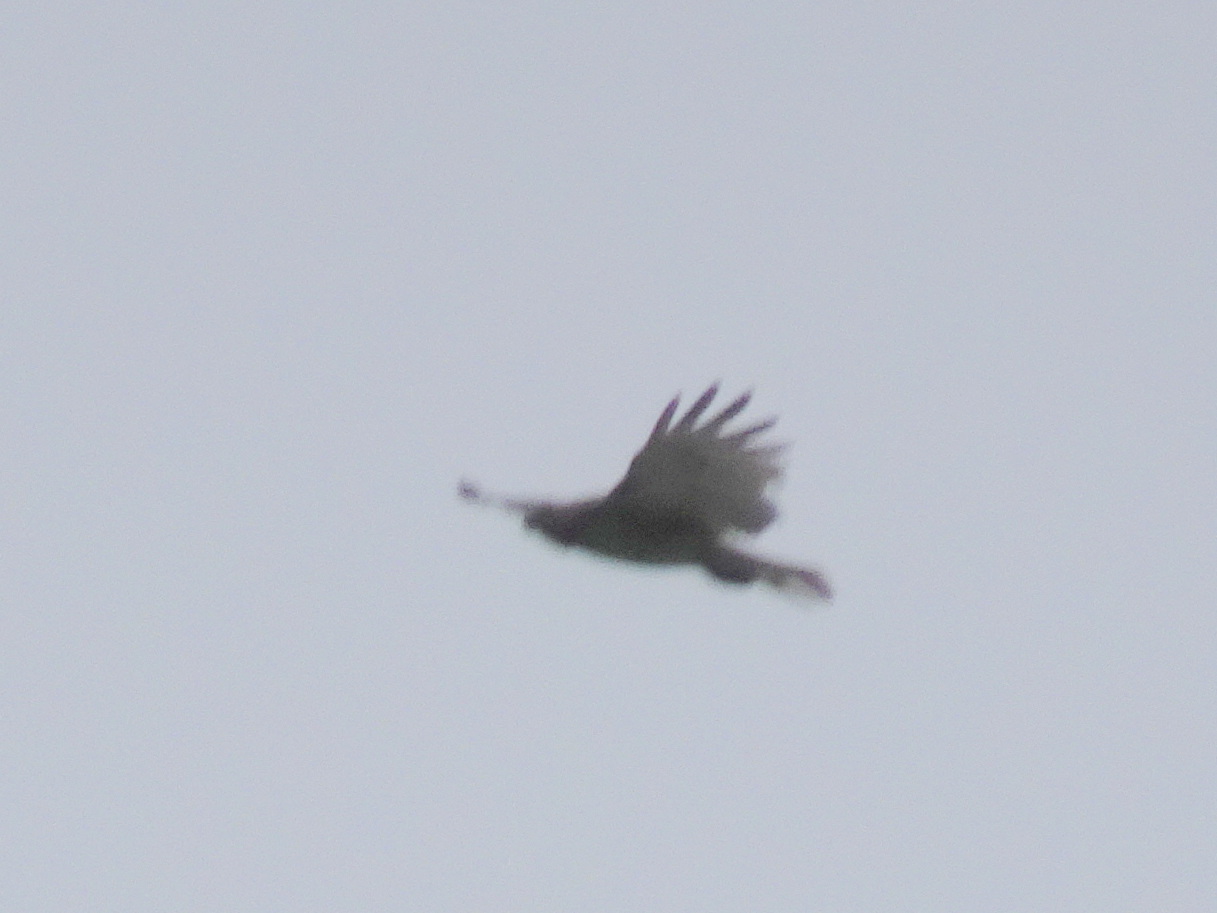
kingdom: Animalia
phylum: Chordata
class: Aves
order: Accipitriformes
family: Accipitridae
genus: Buteo
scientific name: Buteo jamaicensis
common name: Red-tailed hawk
